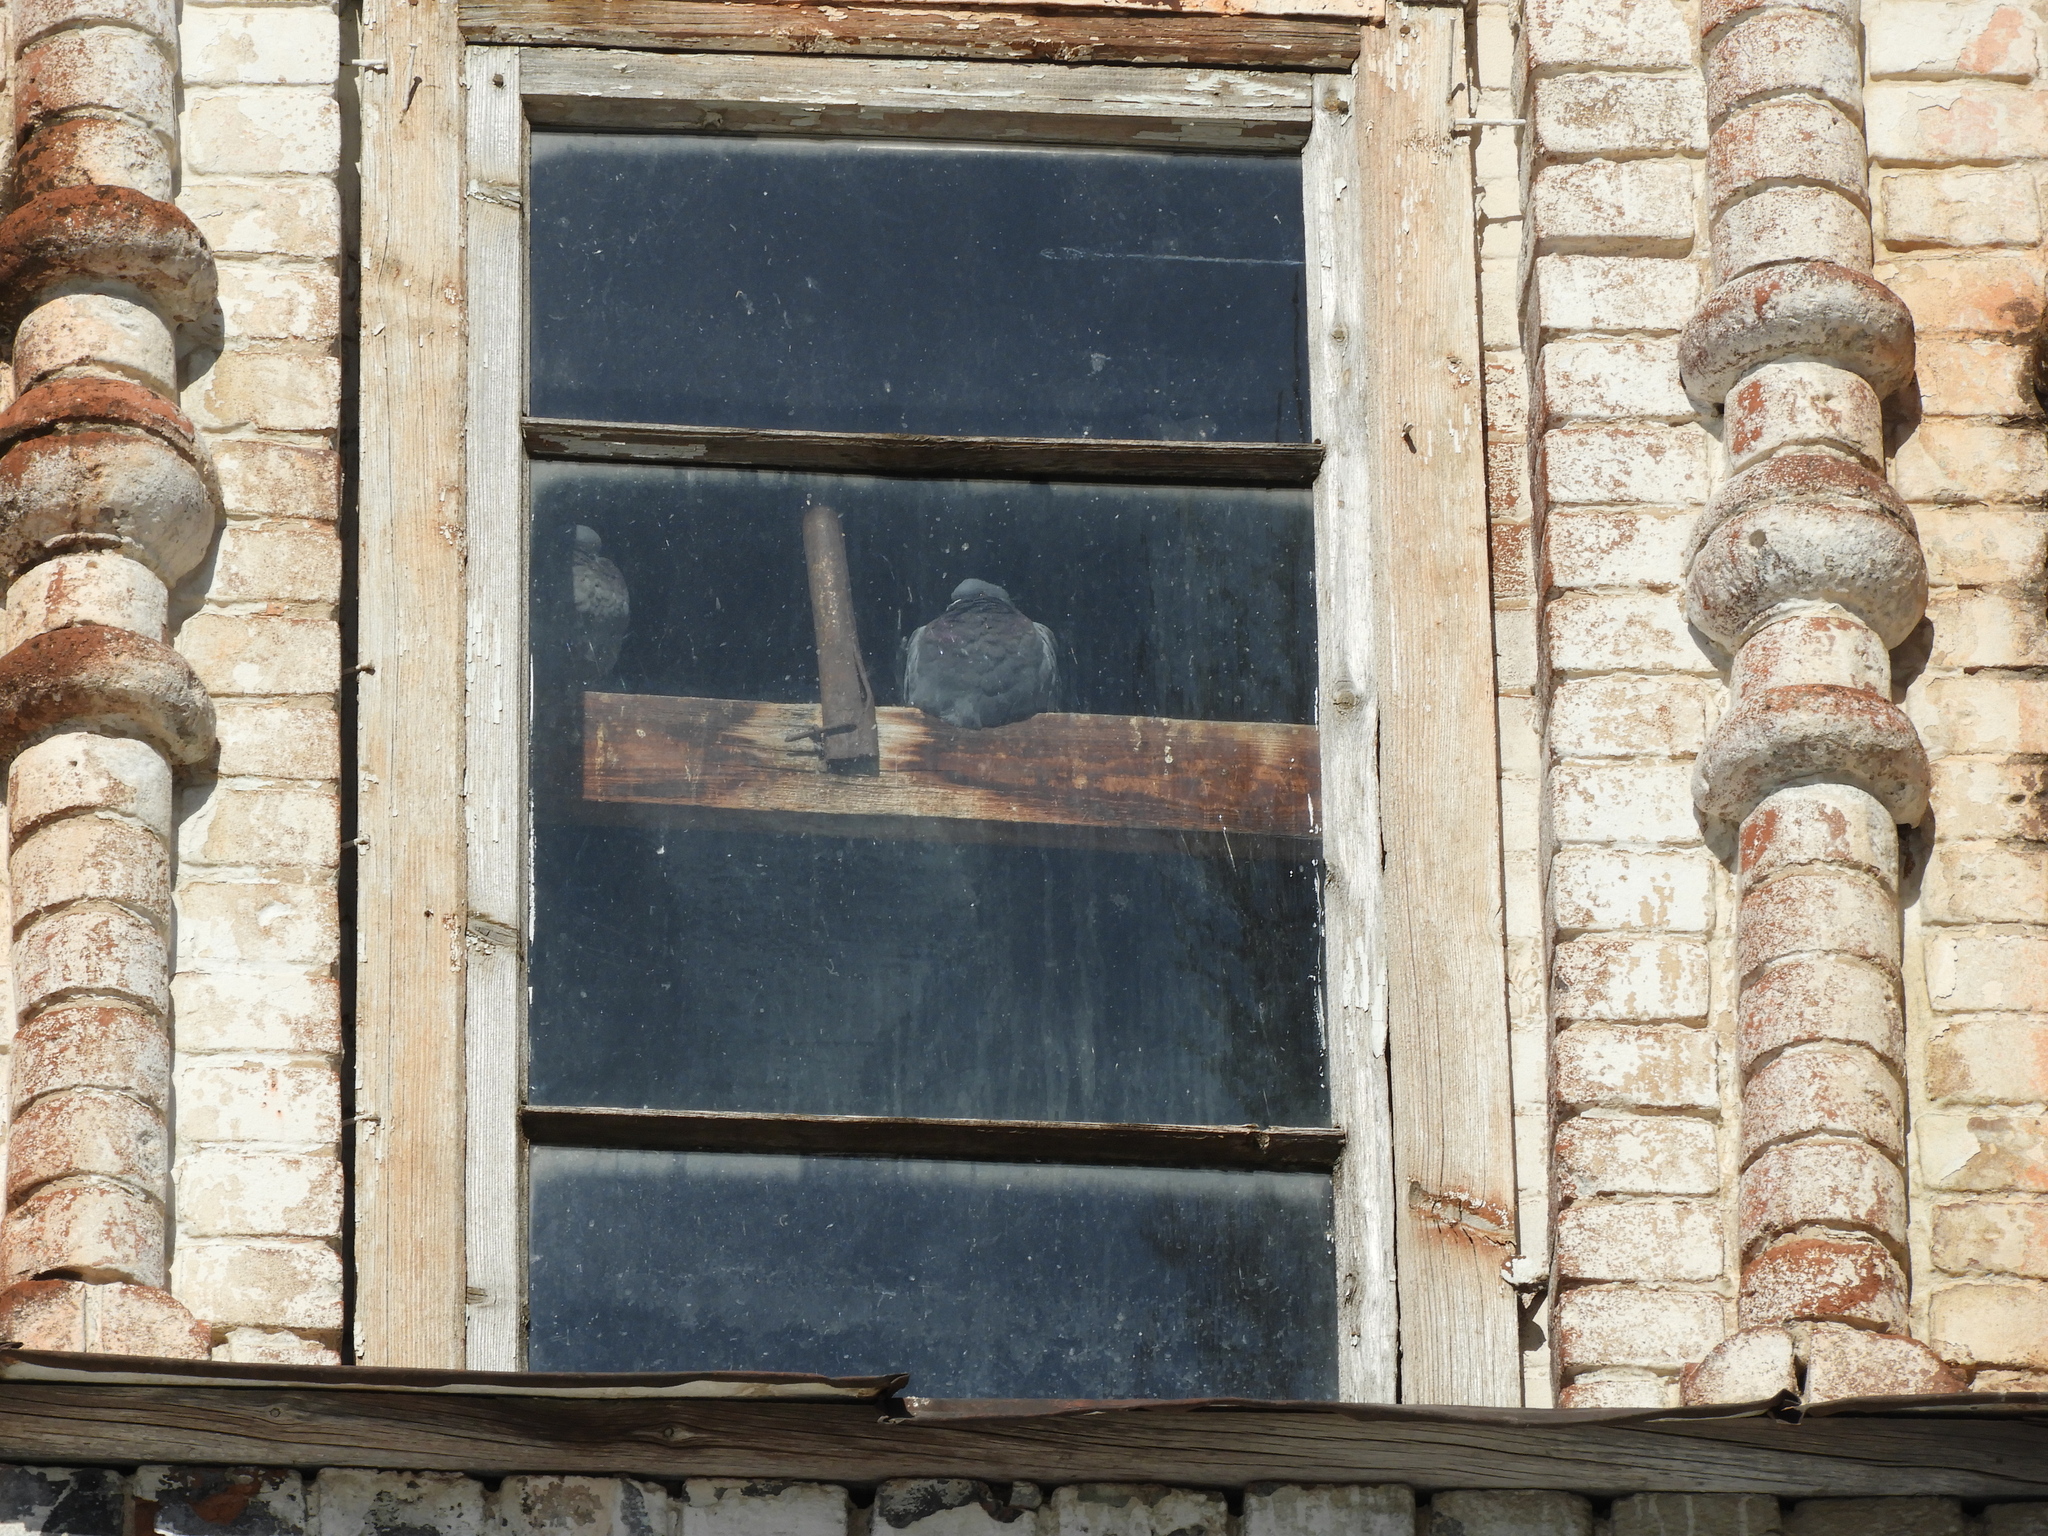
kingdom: Animalia
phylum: Chordata
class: Aves
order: Columbiformes
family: Columbidae
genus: Columba
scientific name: Columba livia
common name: Rock pigeon
